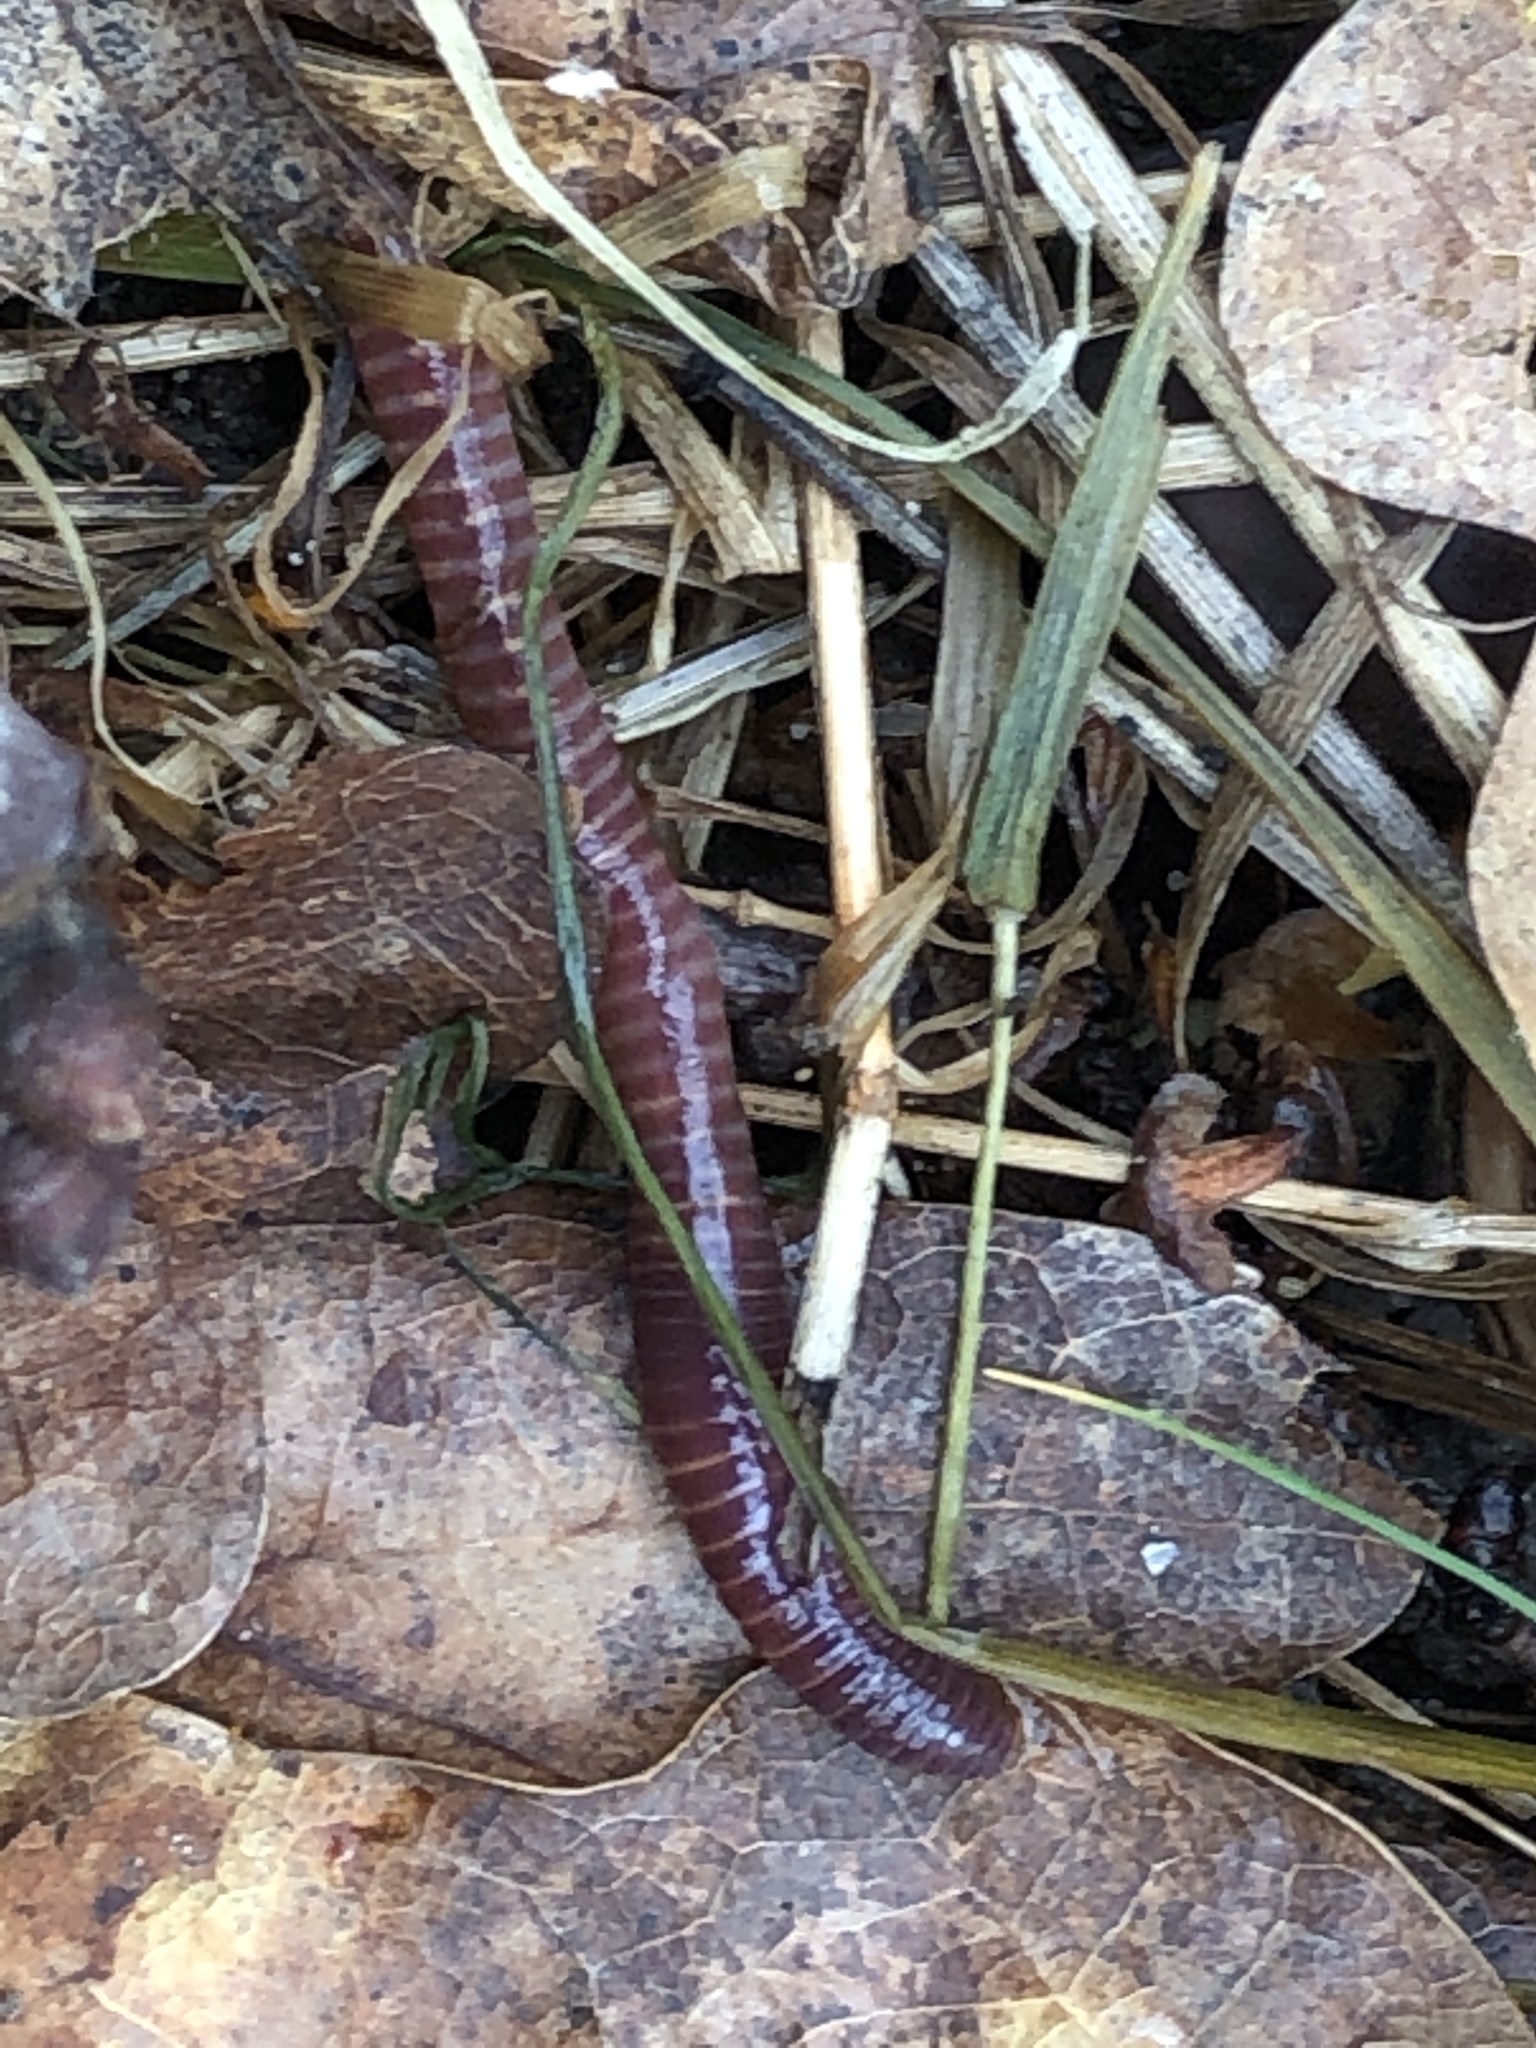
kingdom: Animalia
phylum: Annelida
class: Clitellata
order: Crassiclitellata
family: Lumbricidae
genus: Eisenia
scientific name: Eisenia fetida
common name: Red wiggler
